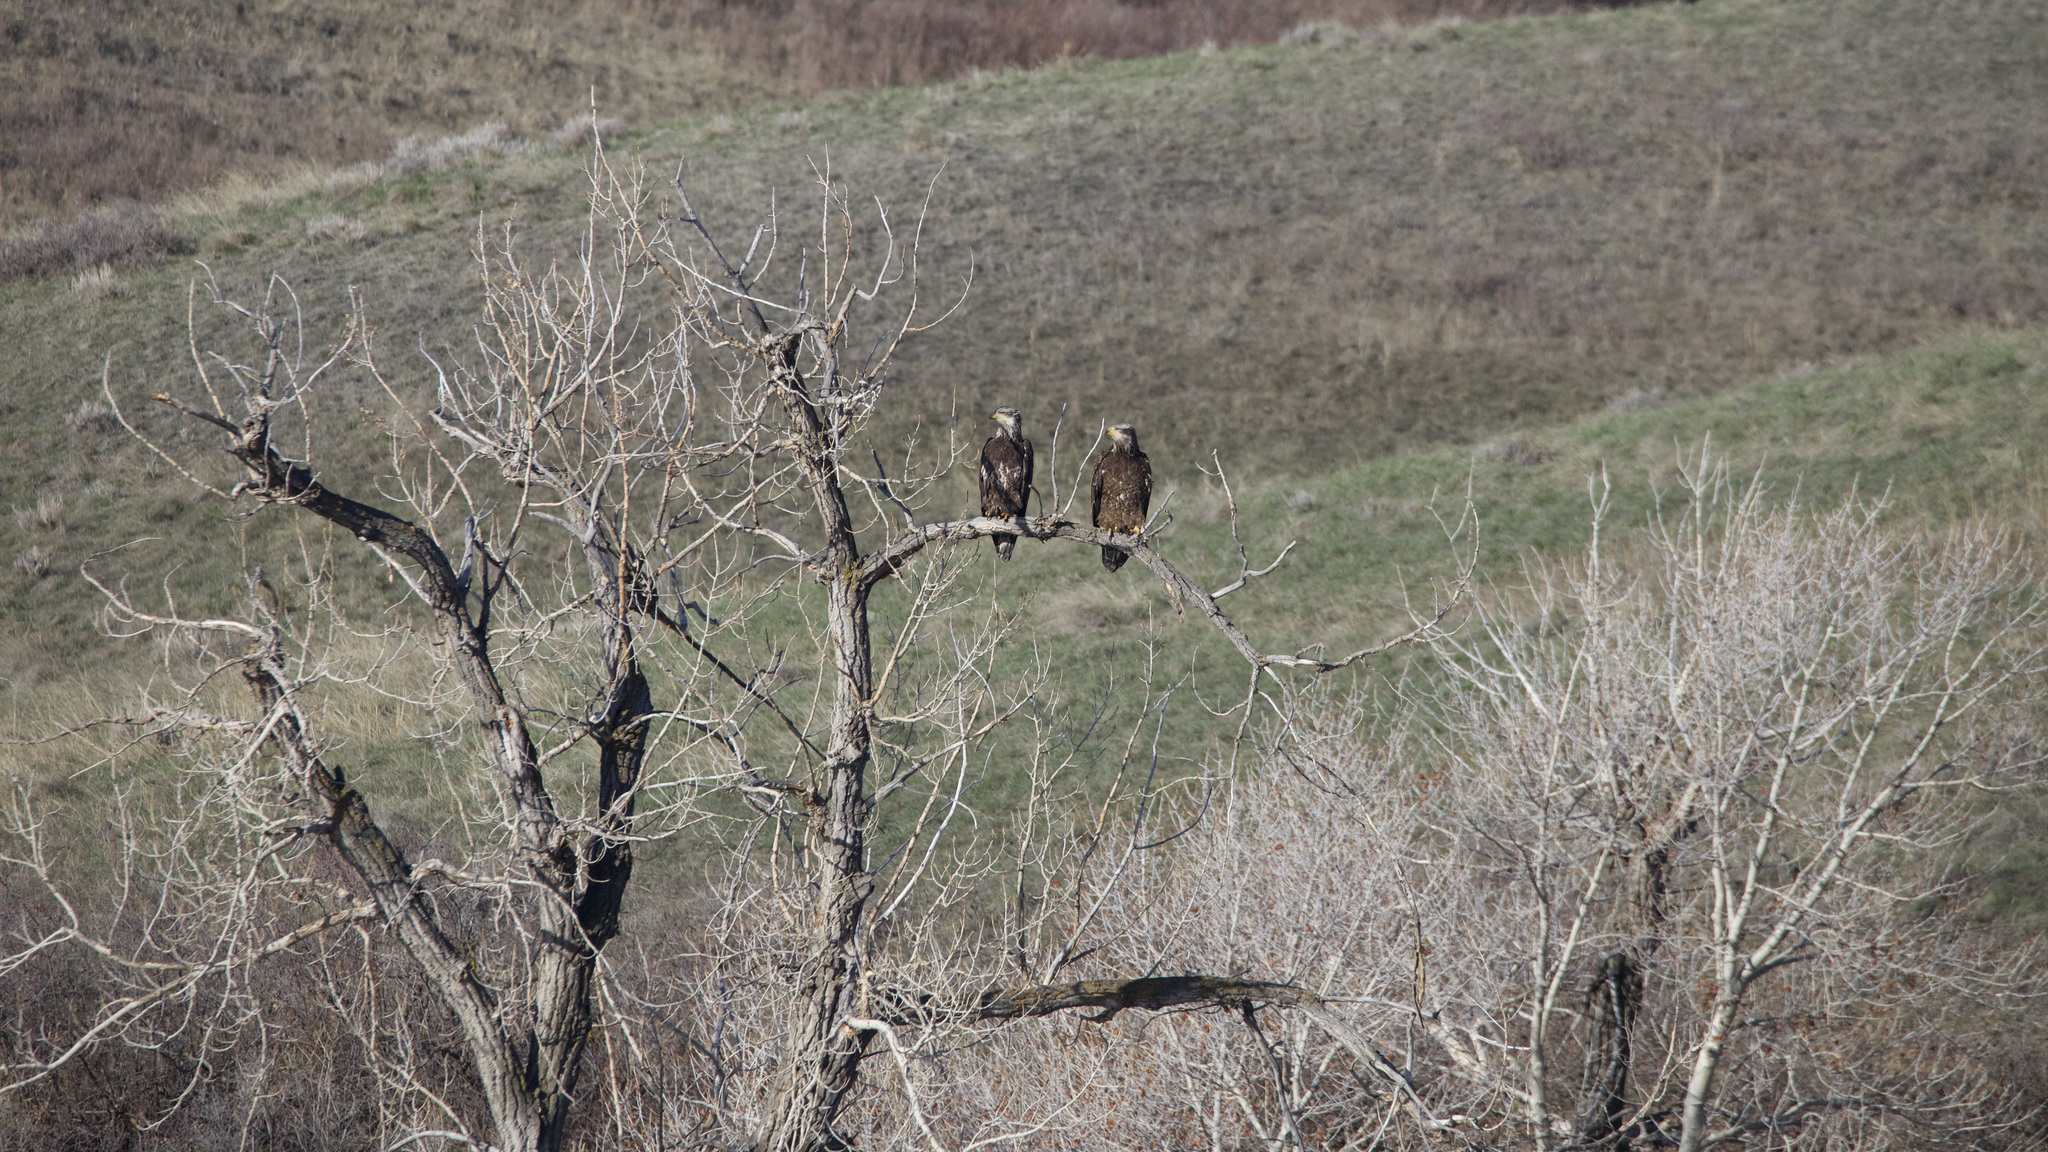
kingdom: Animalia
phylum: Chordata
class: Aves
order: Accipitriformes
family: Accipitridae
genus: Haliaeetus
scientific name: Haliaeetus leucocephalus
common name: Bald eagle
